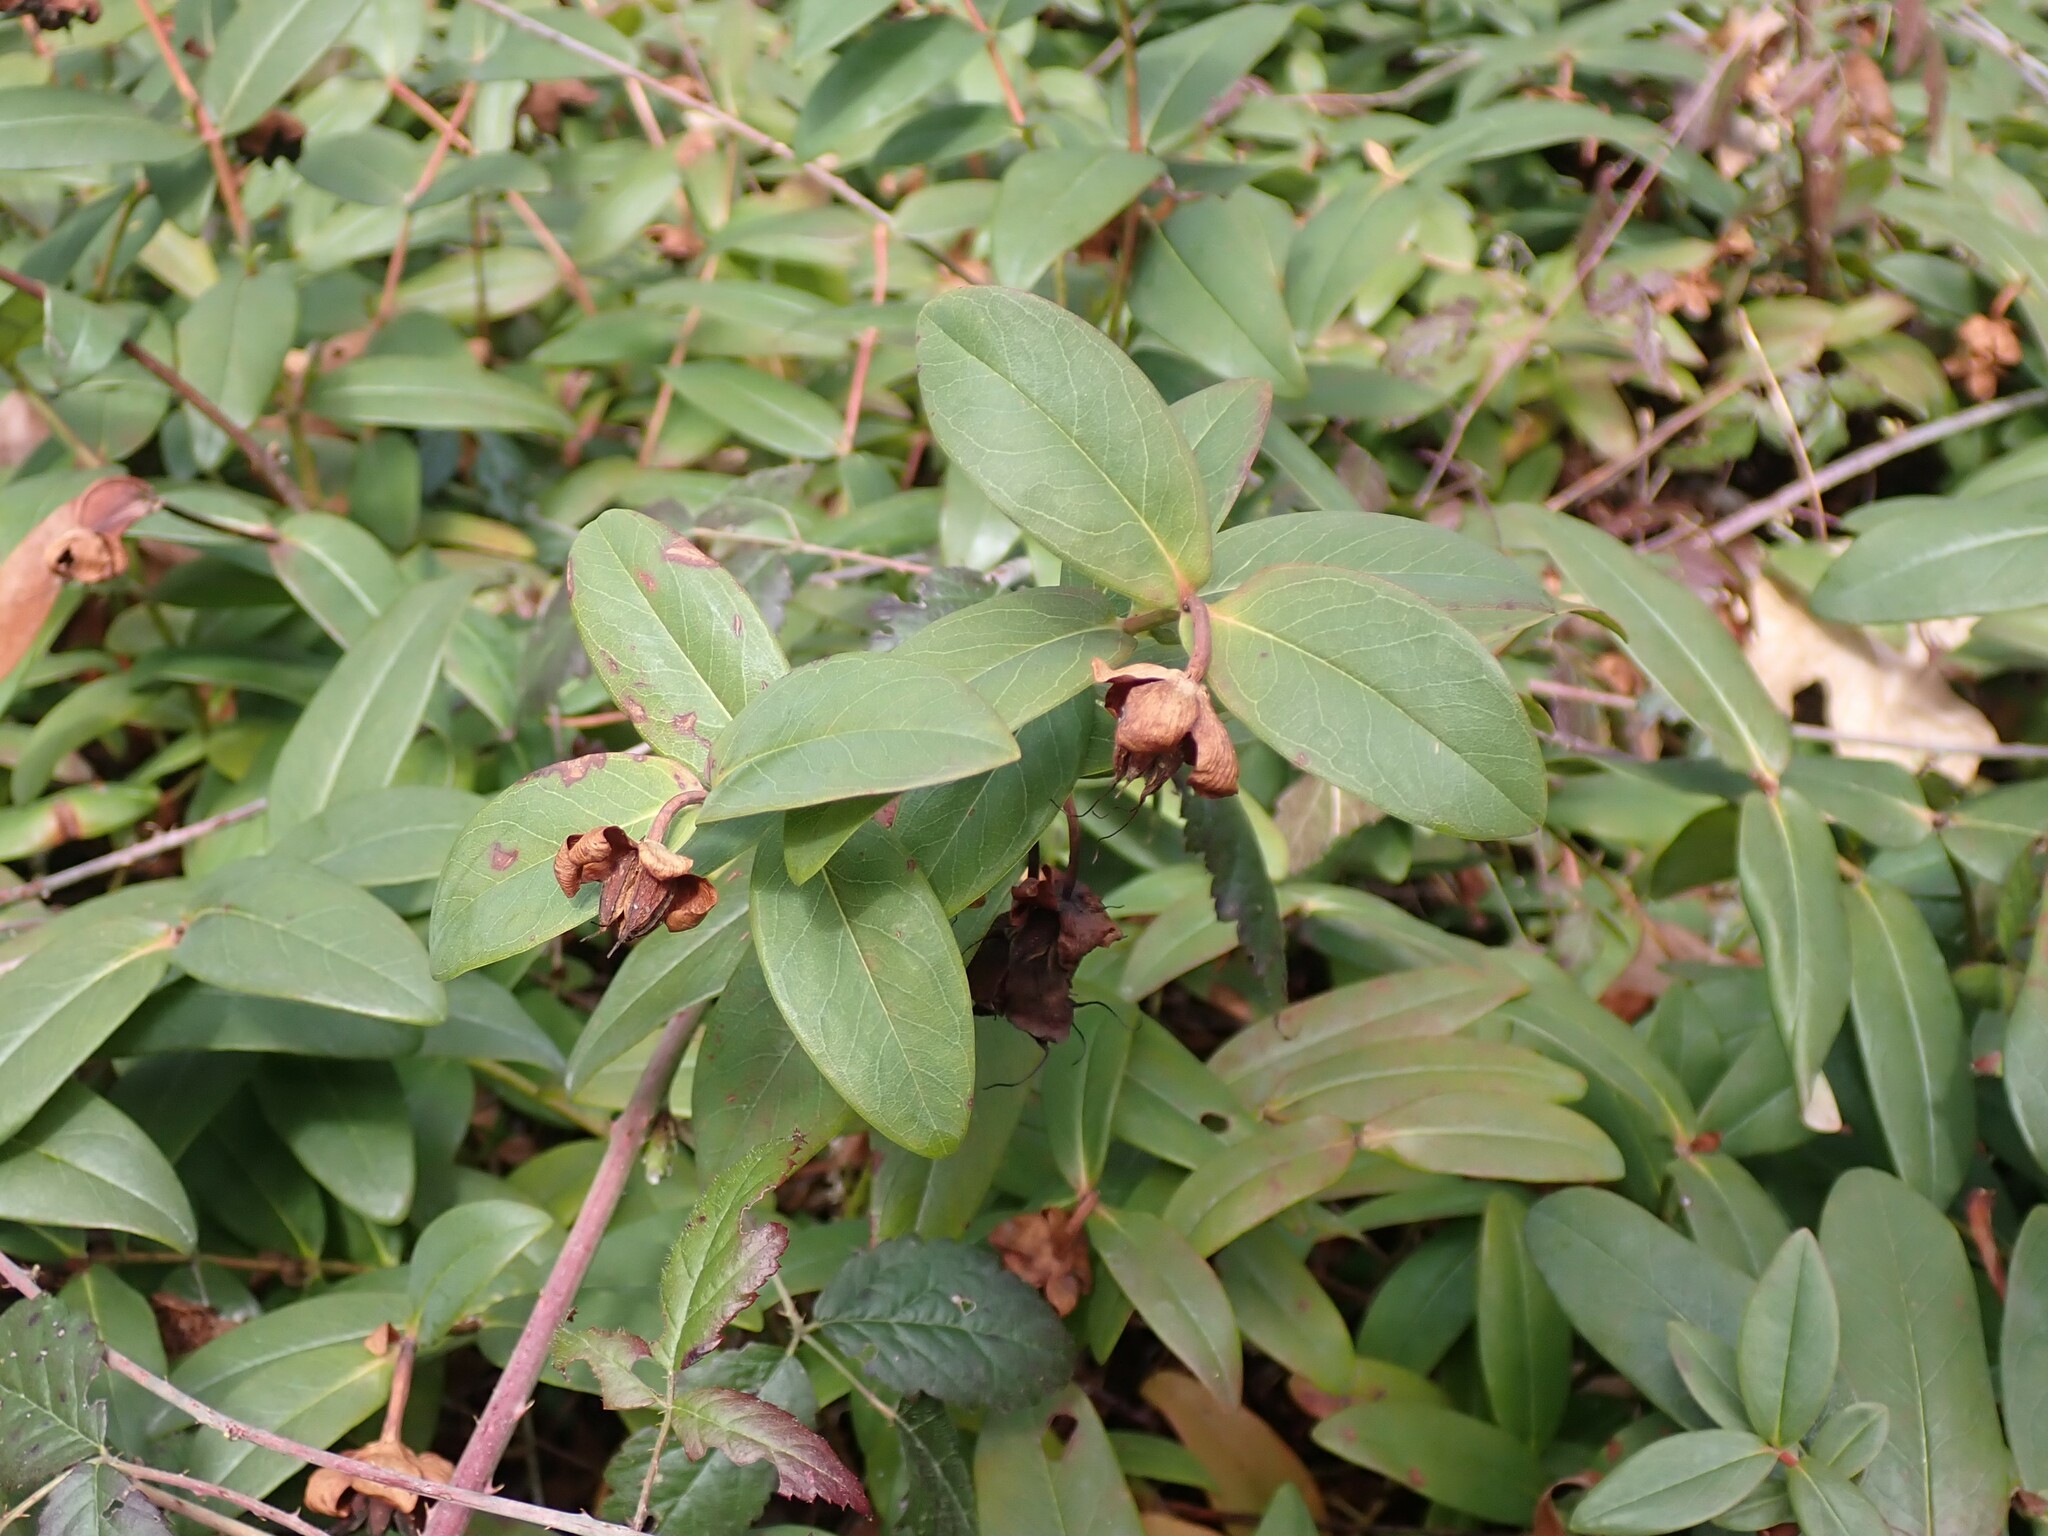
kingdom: Plantae
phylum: Tracheophyta
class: Magnoliopsida
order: Malpighiales
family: Hypericaceae
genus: Hypericum
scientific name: Hypericum calycinum
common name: Rose-of-sharon
